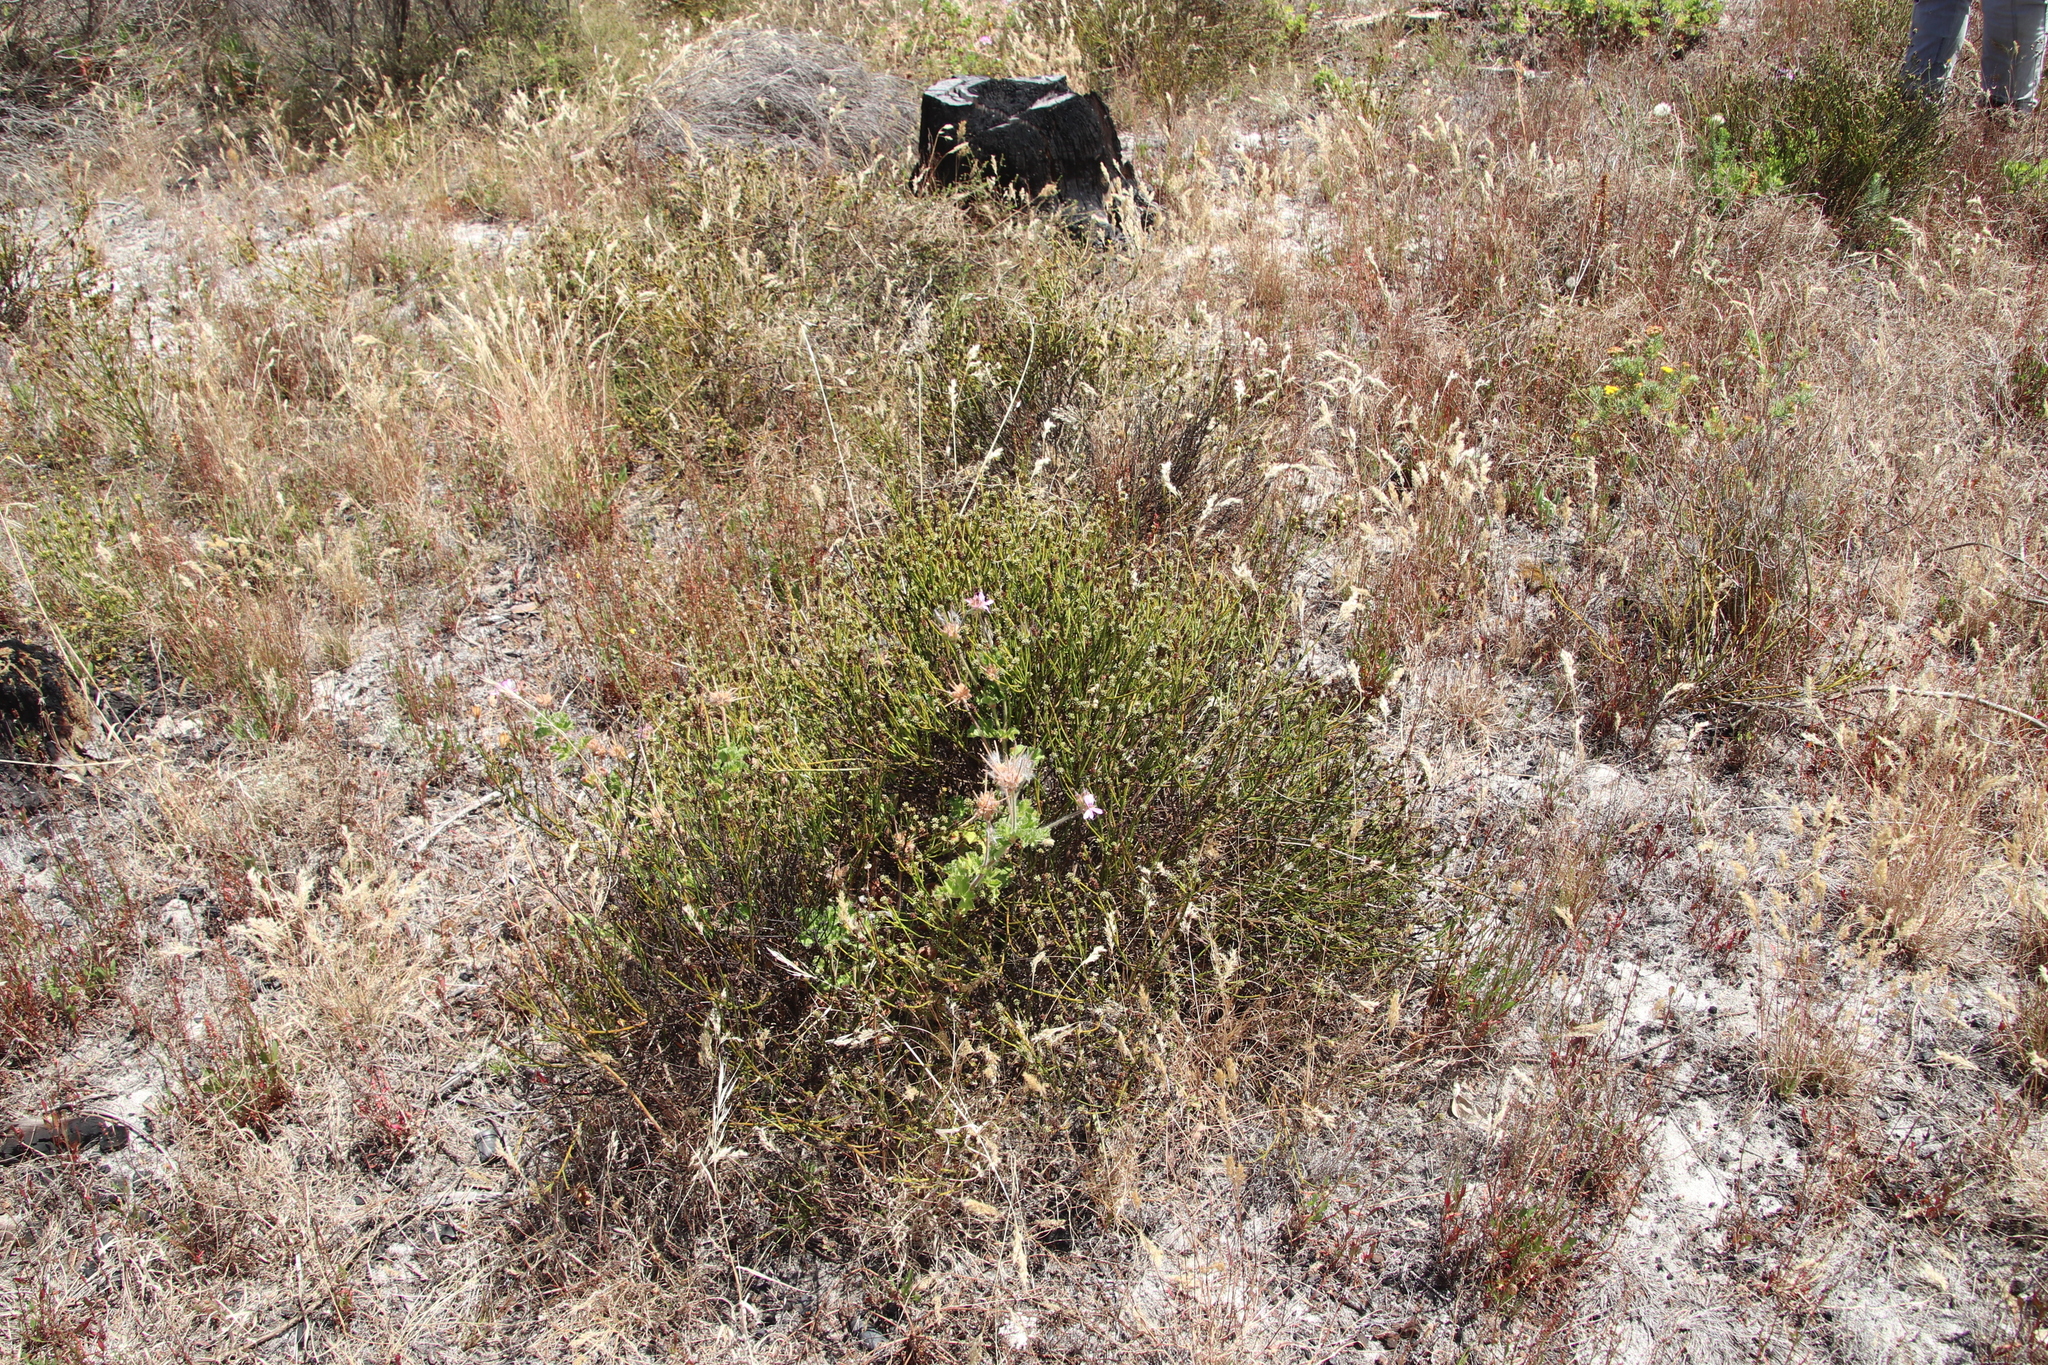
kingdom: Plantae
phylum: Tracheophyta
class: Magnoliopsida
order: Santalales
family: Thesiaceae
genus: Thesium
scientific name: Thesium aggregatum
